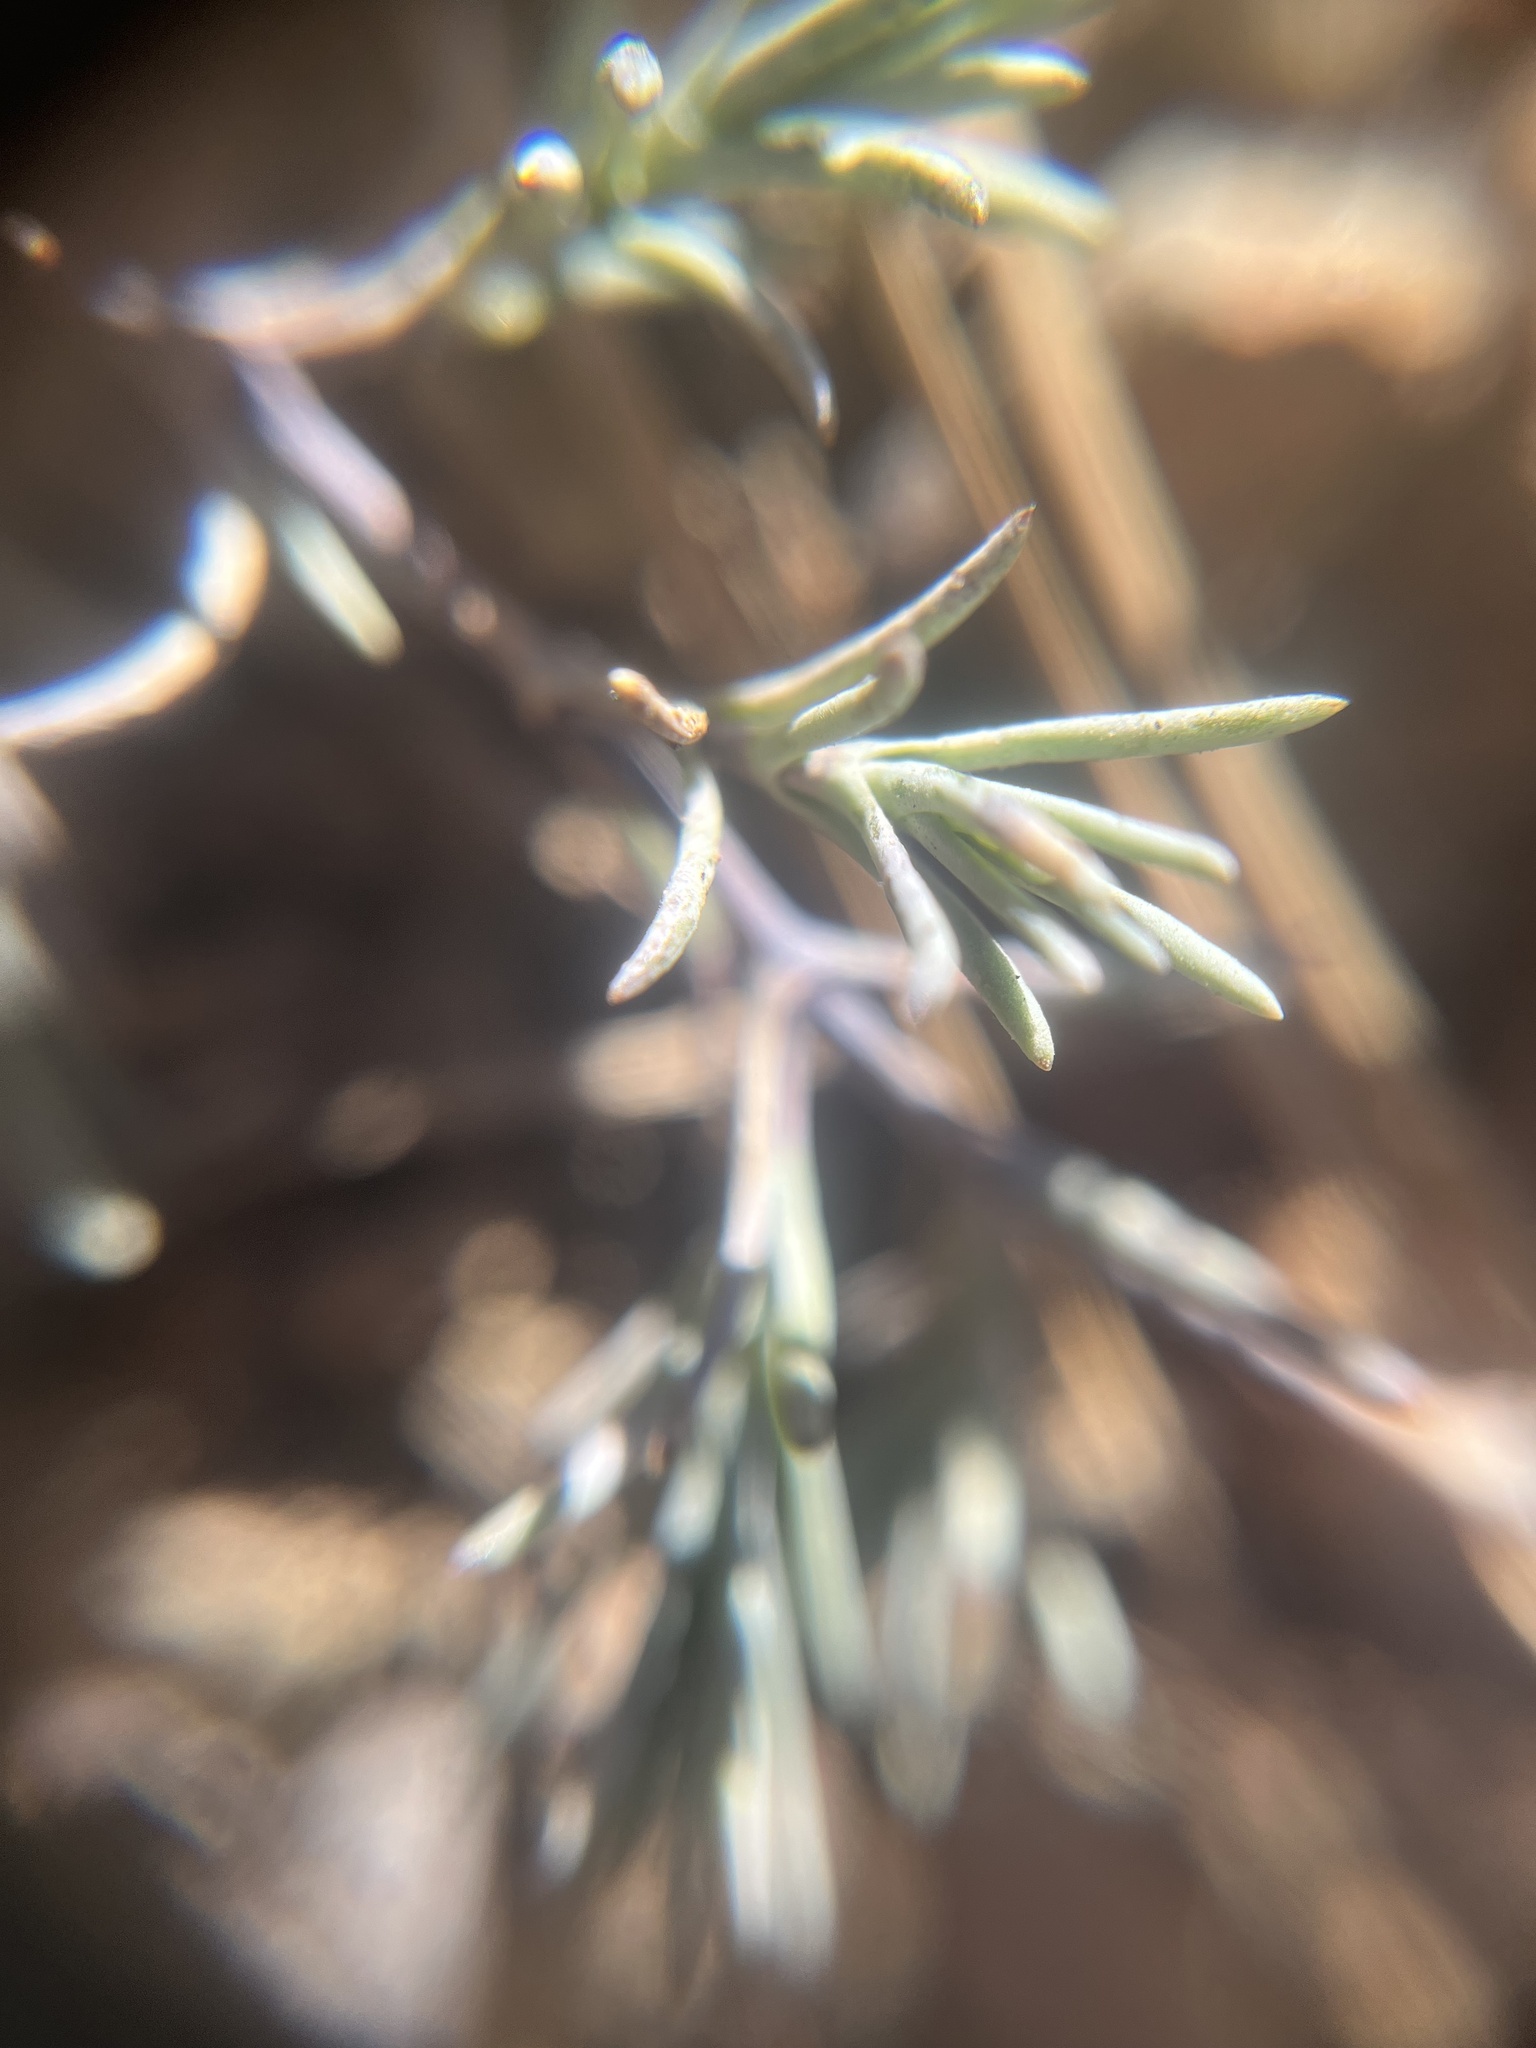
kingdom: Plantae
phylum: Tracheophyta
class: Magnoliopsida
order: Caryophyllales
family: Caryophyllaceae
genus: Sabulina
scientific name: Sabulina rosei
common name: Ross' sandwort
